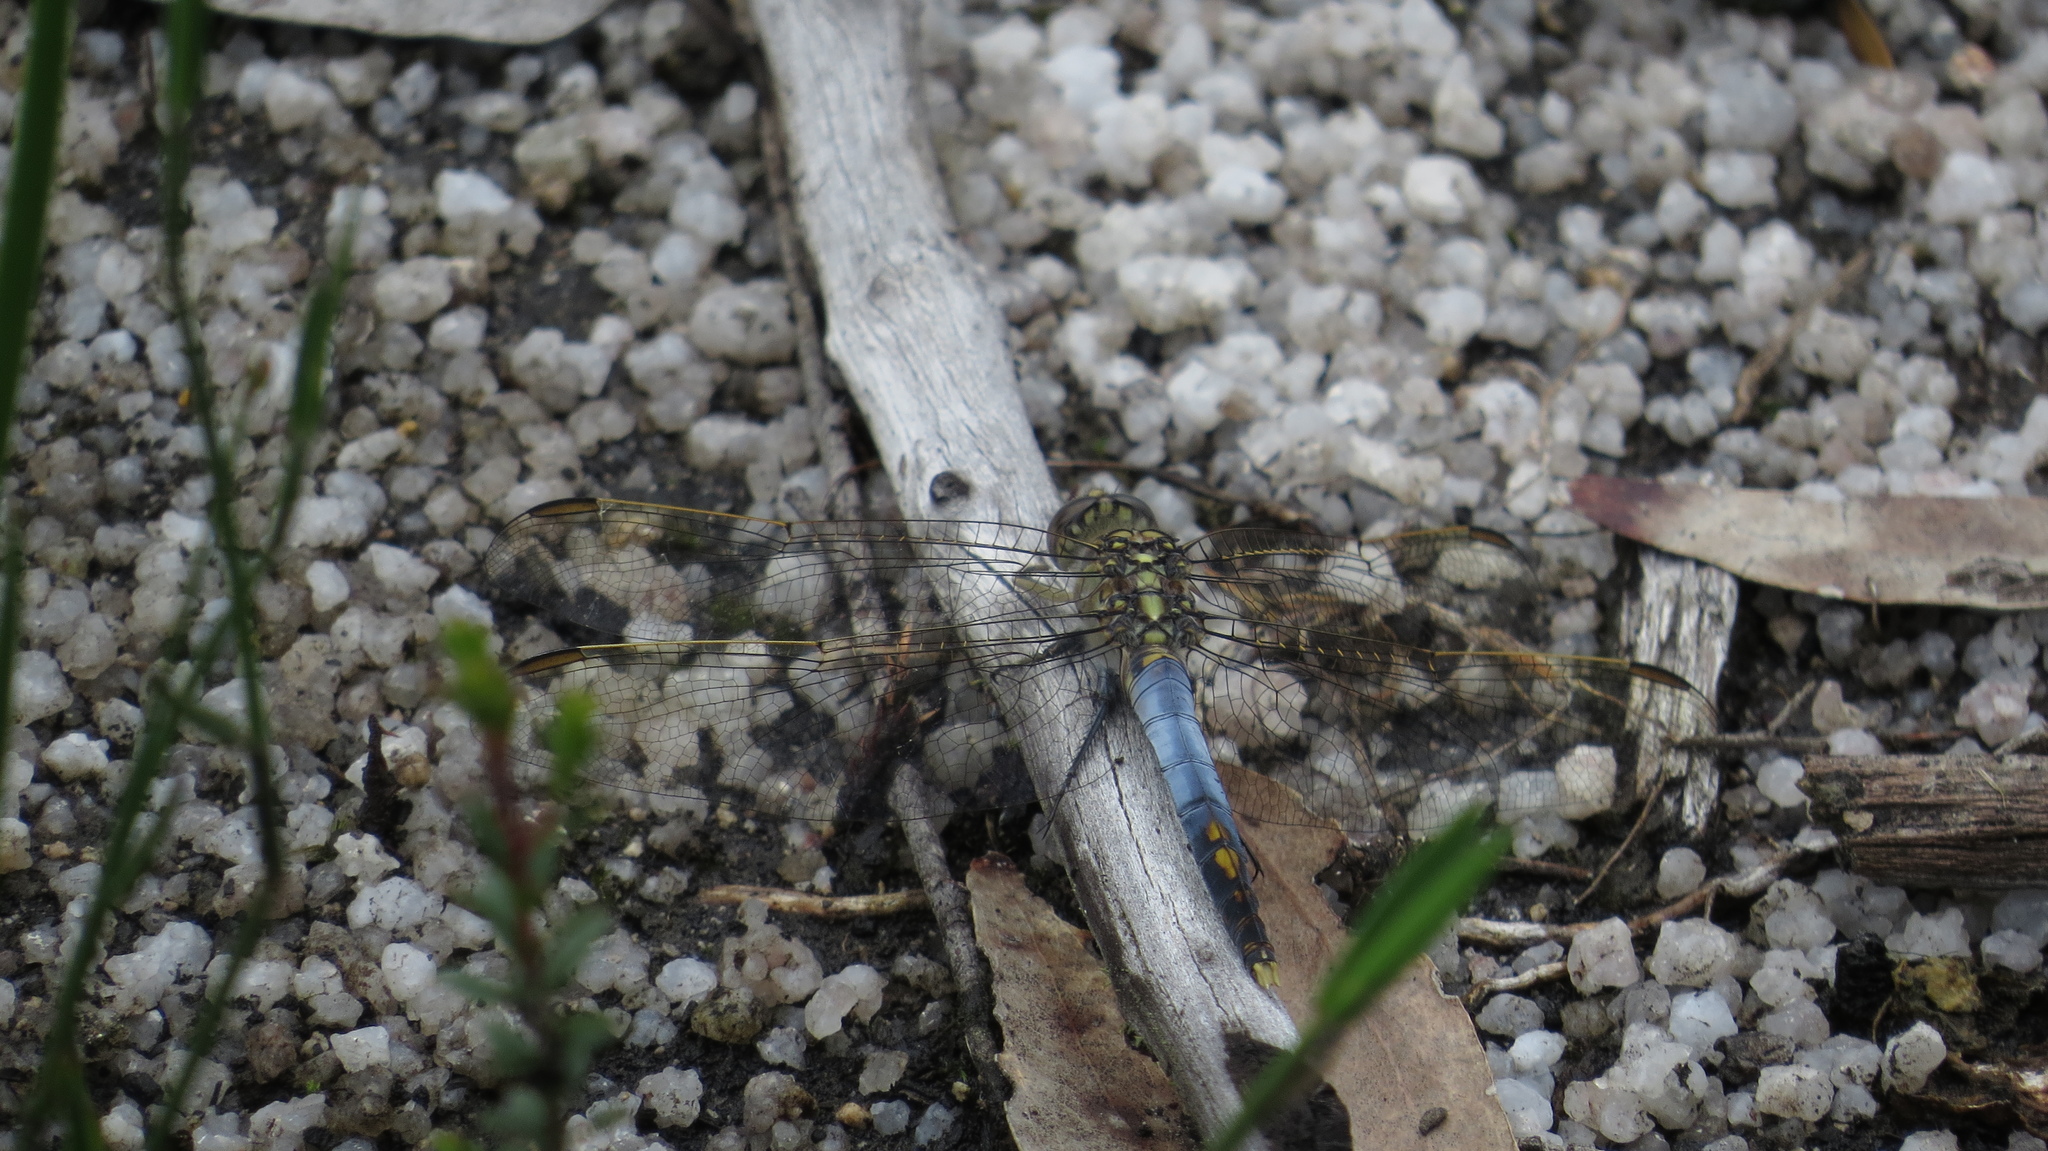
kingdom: Animalia
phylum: Arthropoda
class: Insecta
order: Odonata
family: Libellulidae
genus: Orthetrum
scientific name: Orthetrum caledonicum
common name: Blue skimmer
